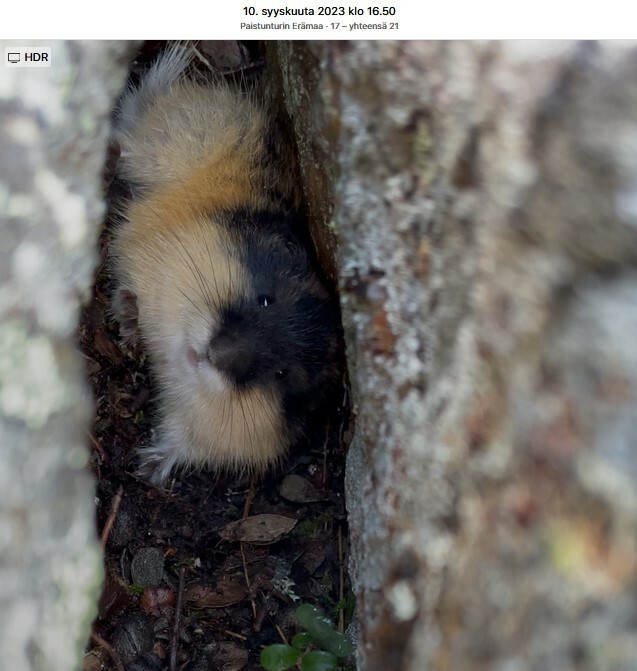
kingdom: Animalia
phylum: Chordata
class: Mammalia
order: Rodentia
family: Cricetidae
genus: Lemmus
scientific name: Lemmus lemmus
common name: Norway lemming
